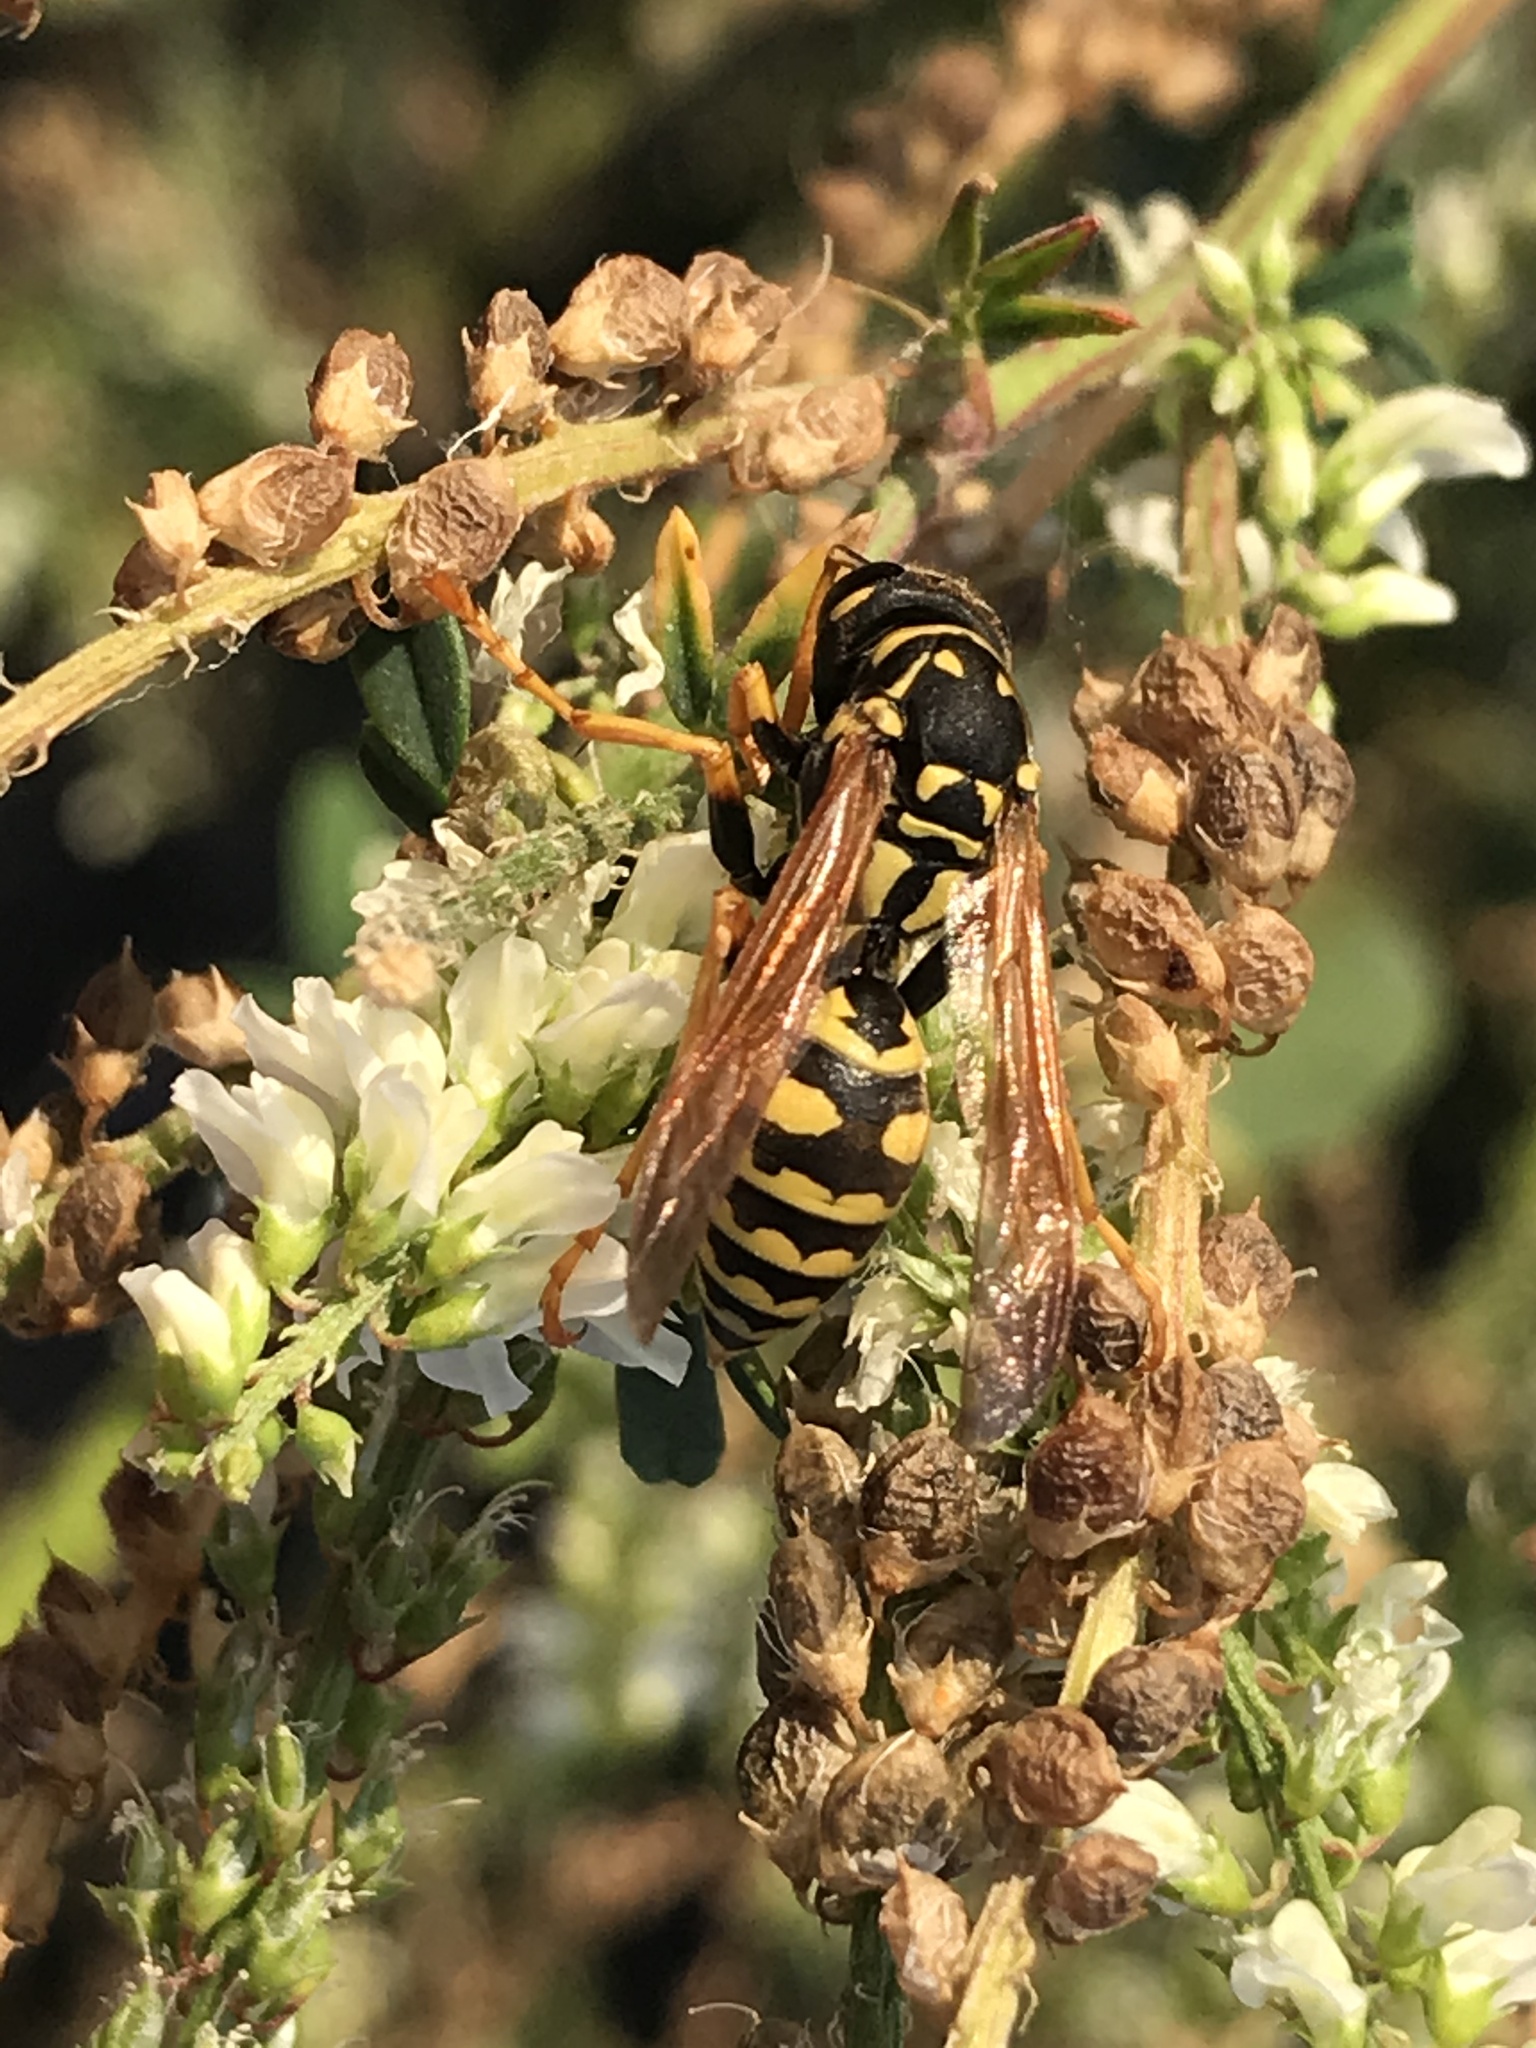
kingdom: Animalia
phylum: Arthropoda
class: Insecta
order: Hymenoptera
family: Eumenidae
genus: Polistes
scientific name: Polistes dominula
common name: Paper wasp
